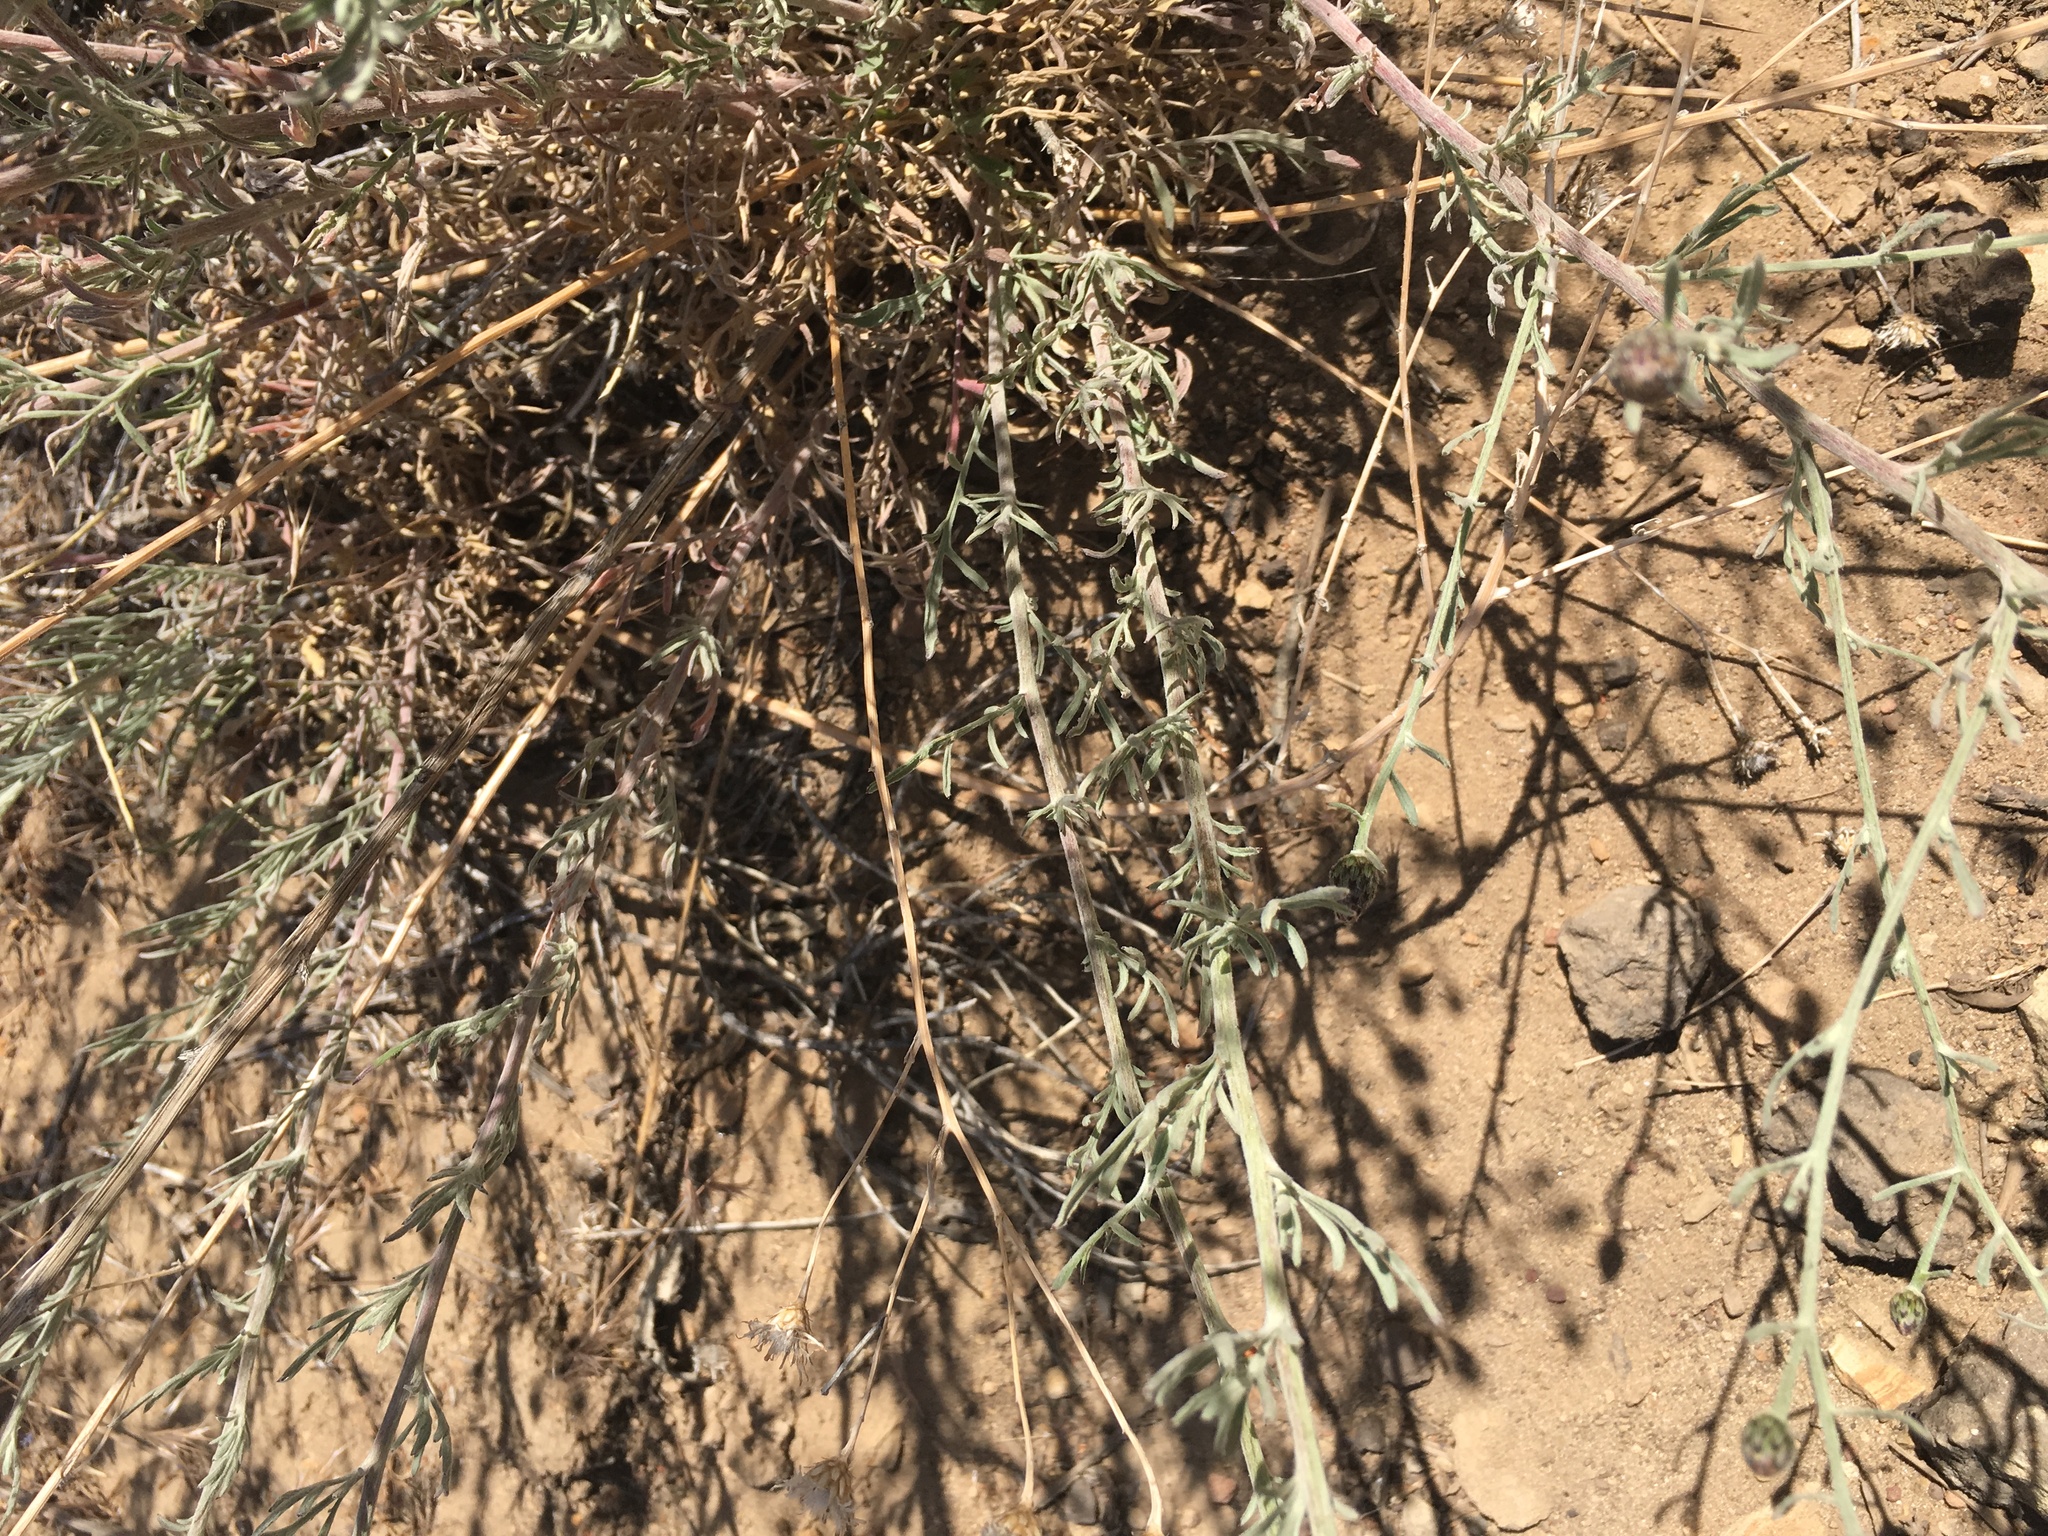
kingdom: Plantae
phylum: Tracheophyta
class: Magnoliopsida
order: Asterales
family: Asteraceae
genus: Centaurea
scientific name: Centaurea stoebe
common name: Spotted knapweed
